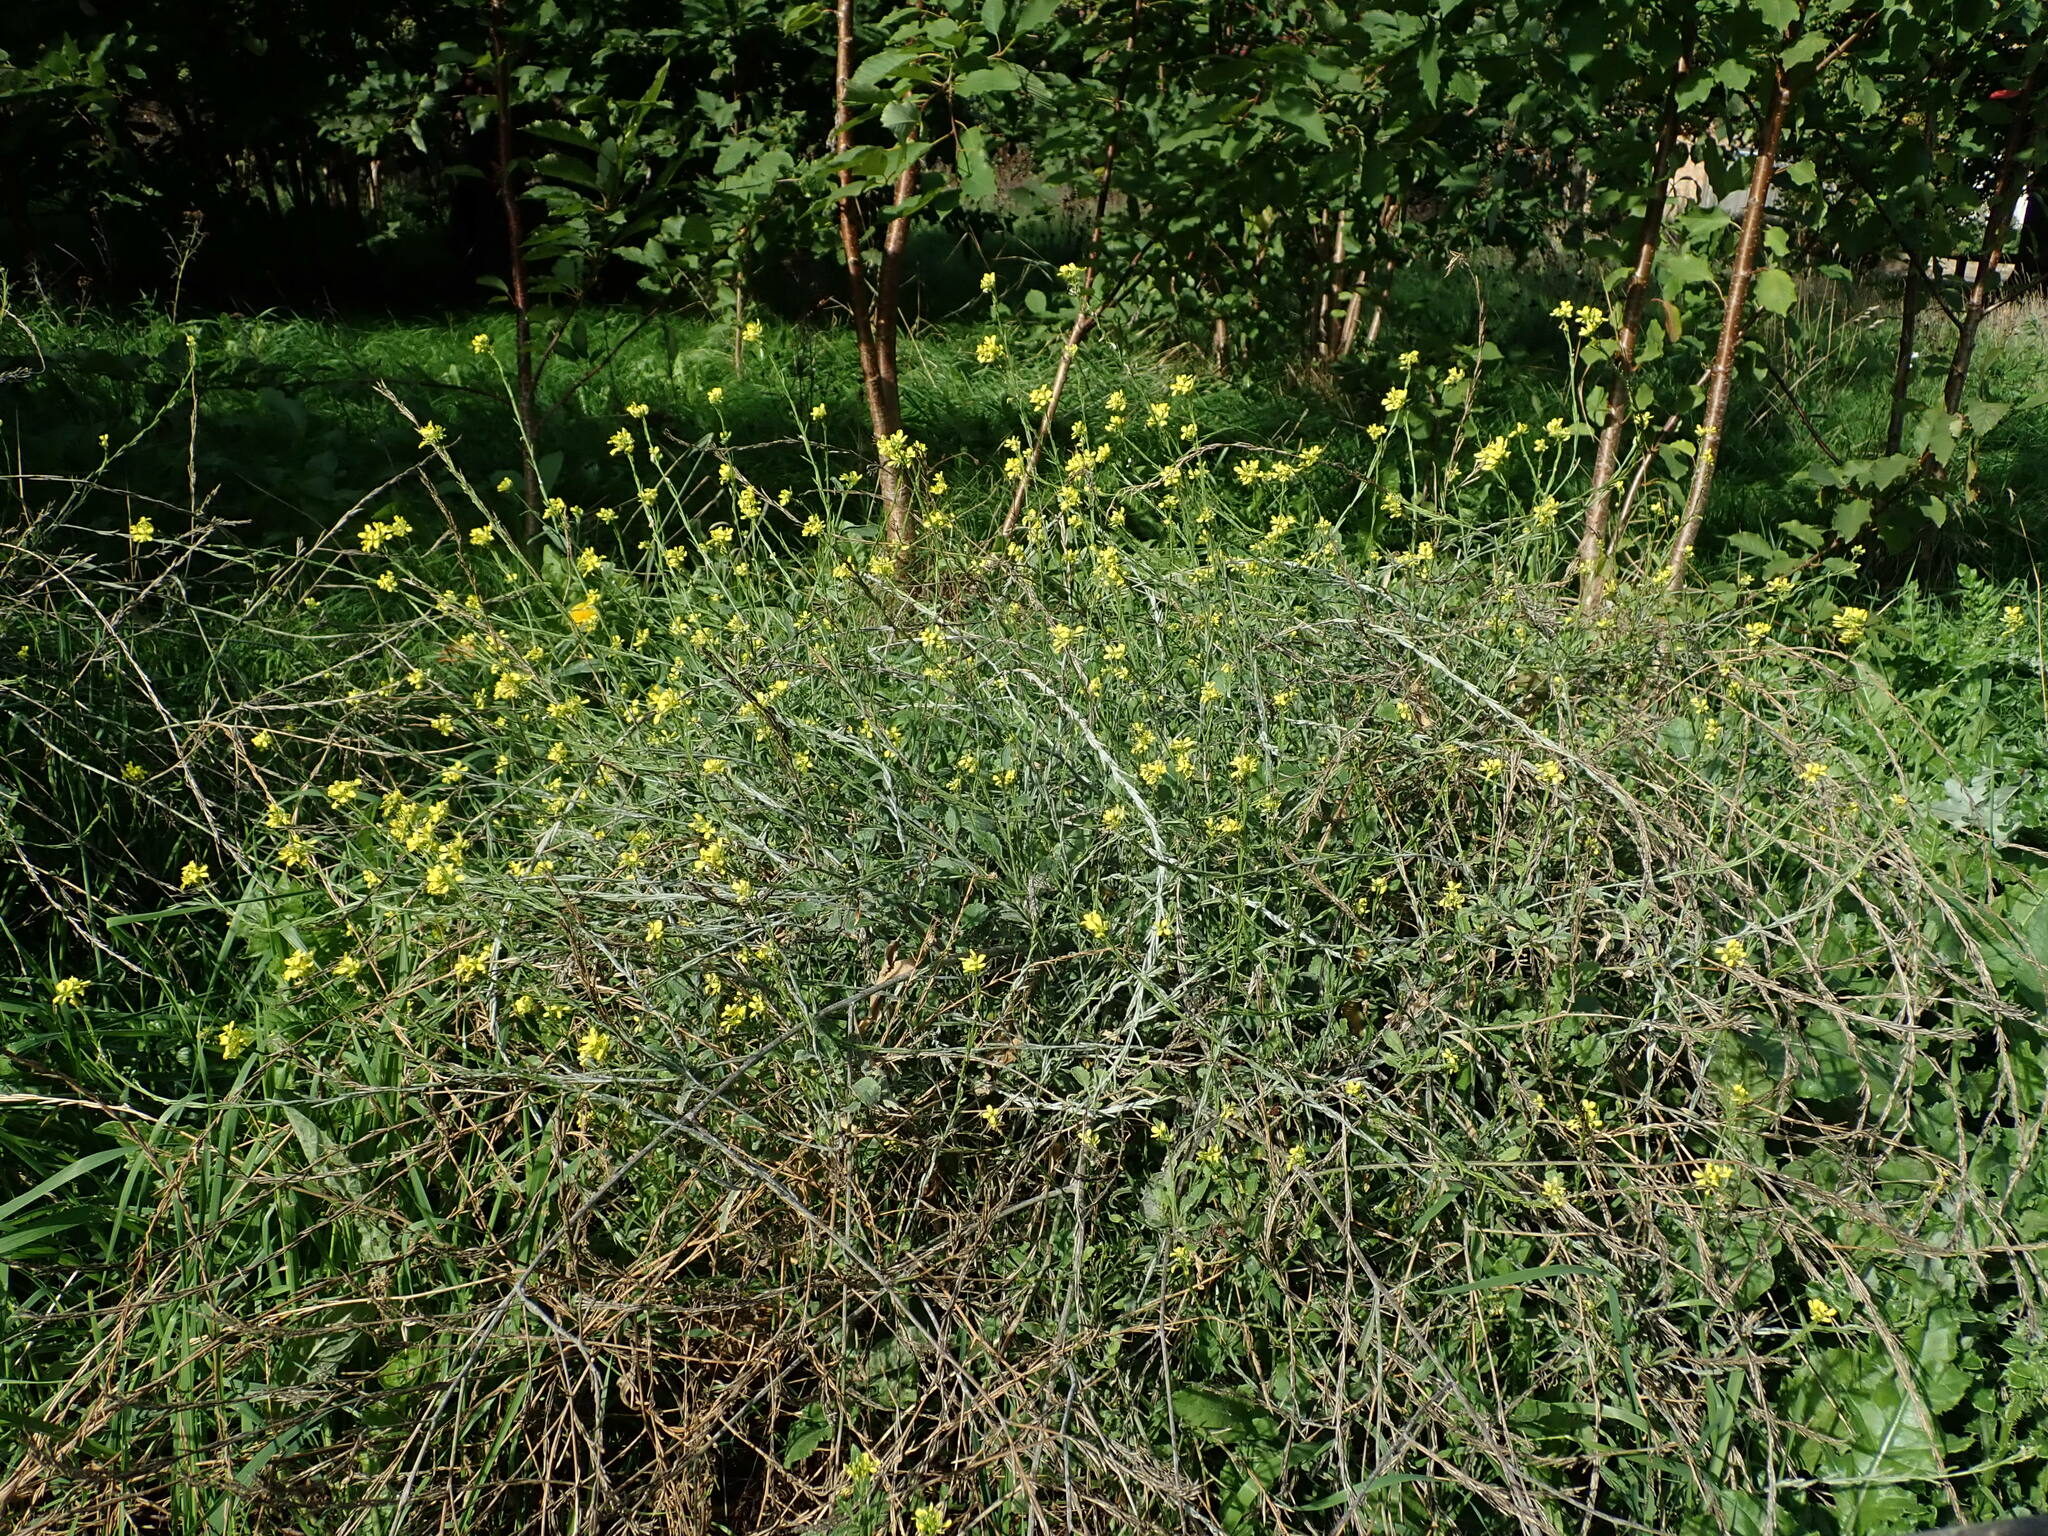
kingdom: Plantae
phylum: Tracheophyta
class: Magnoliopsida
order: Brassicales
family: Brassicaceae
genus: Hirschfeldia
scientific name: Hirschfeldia incana
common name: Hoary mustard
